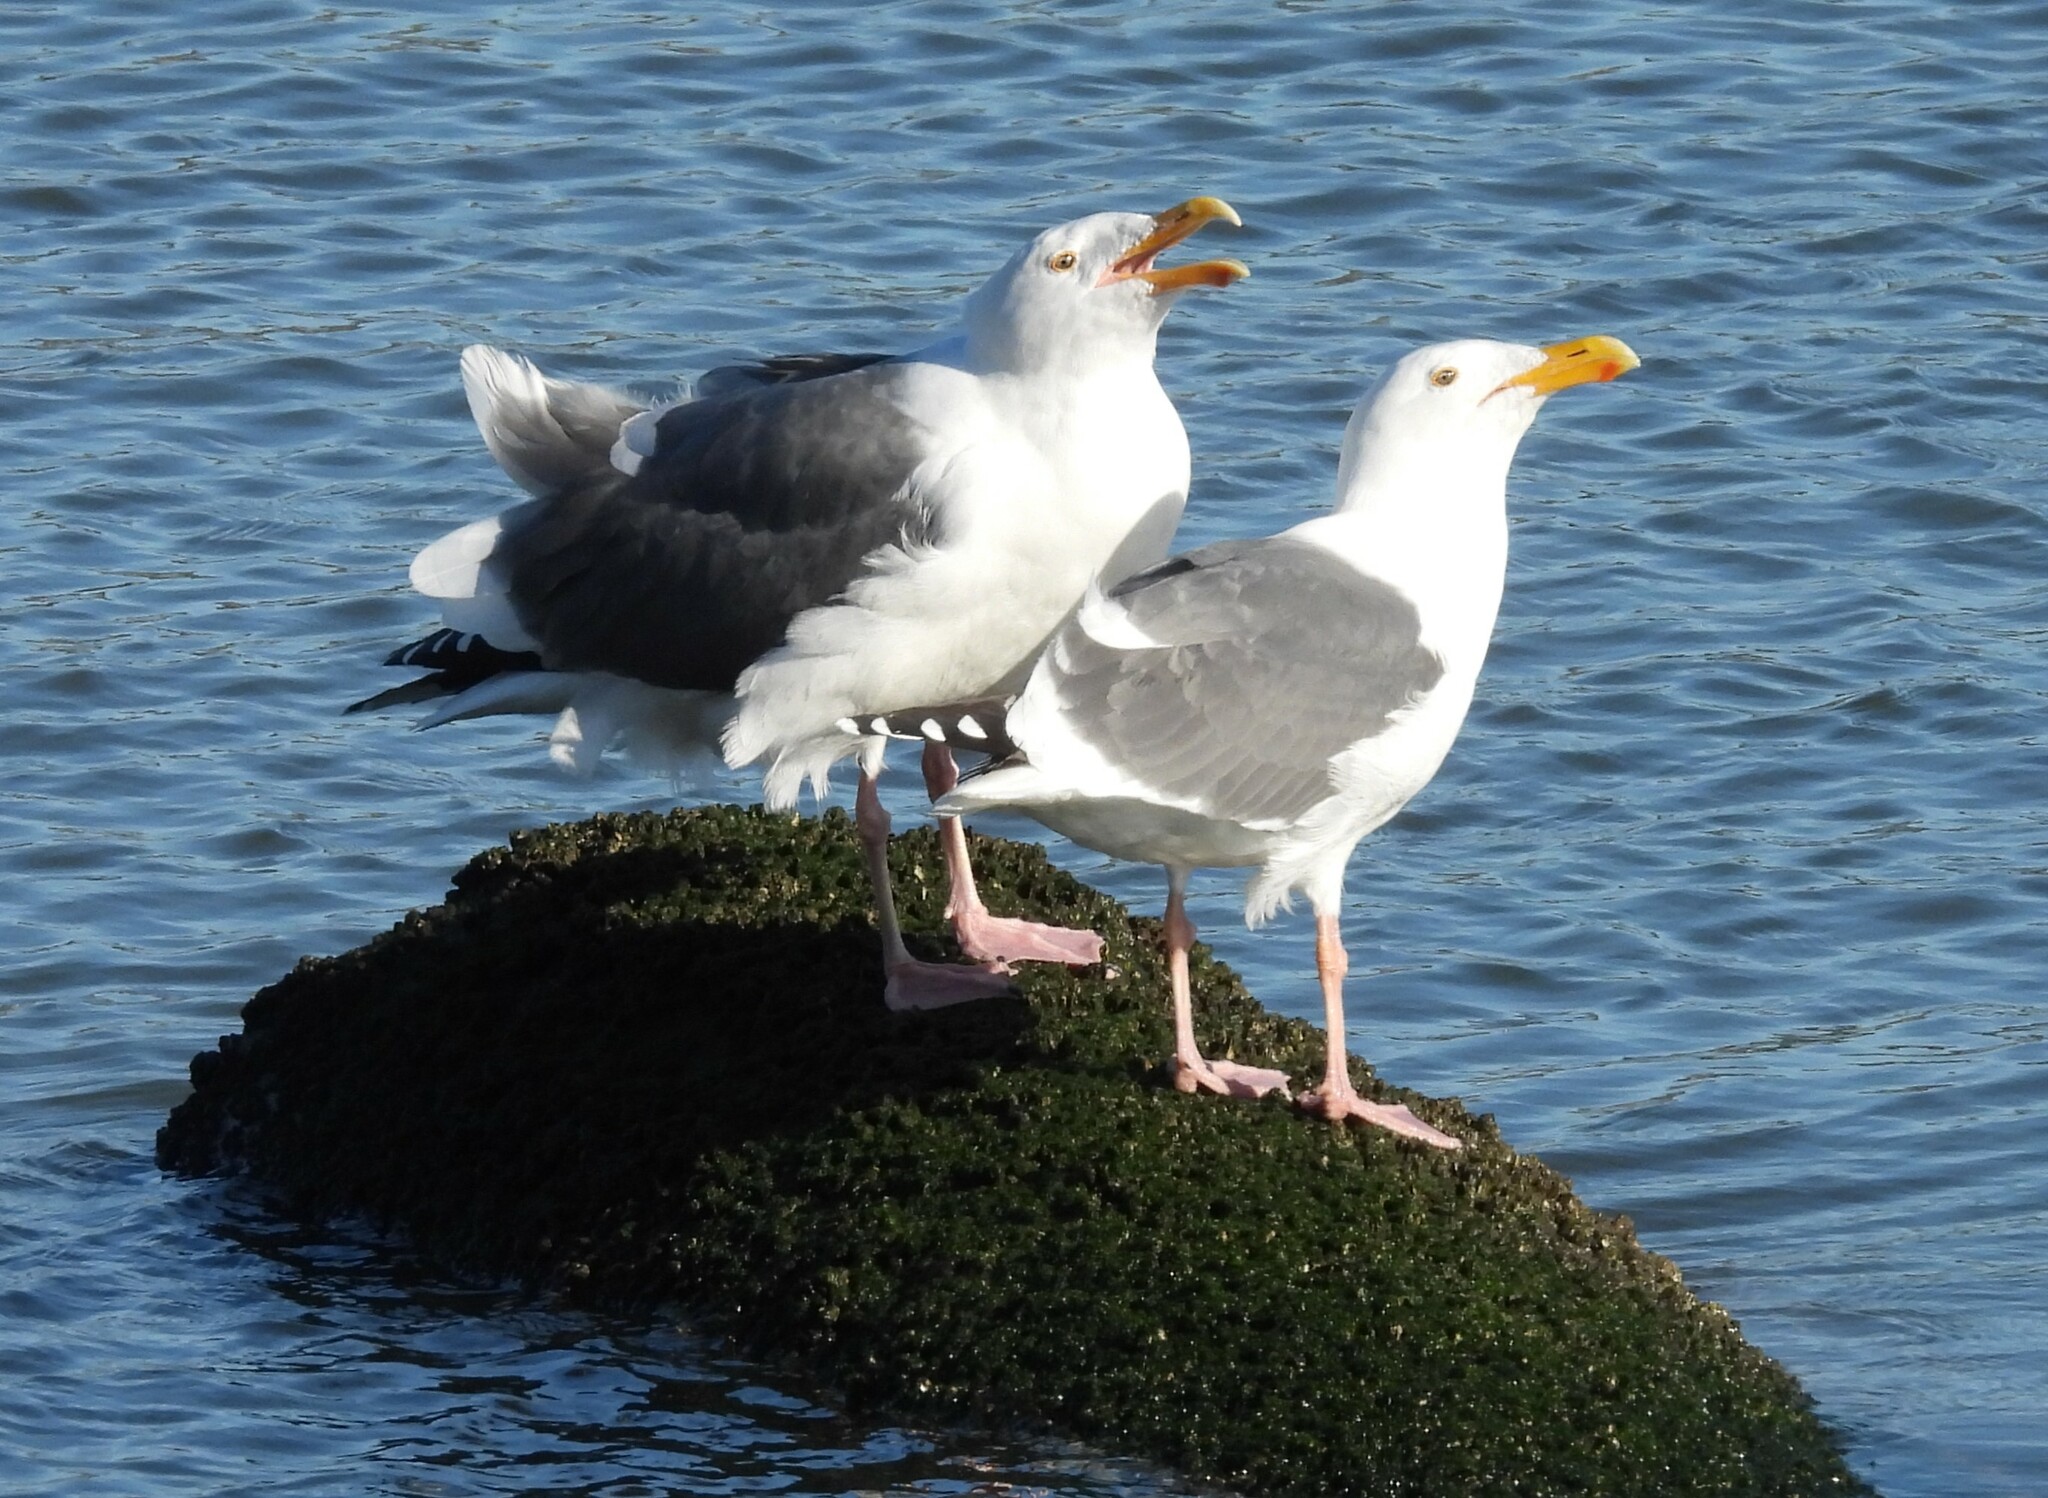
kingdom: Animalia
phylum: Chordata
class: Aves
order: Charadriiformes
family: Laridae
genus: Larus
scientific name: Larus occidentalis
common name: Western gull
